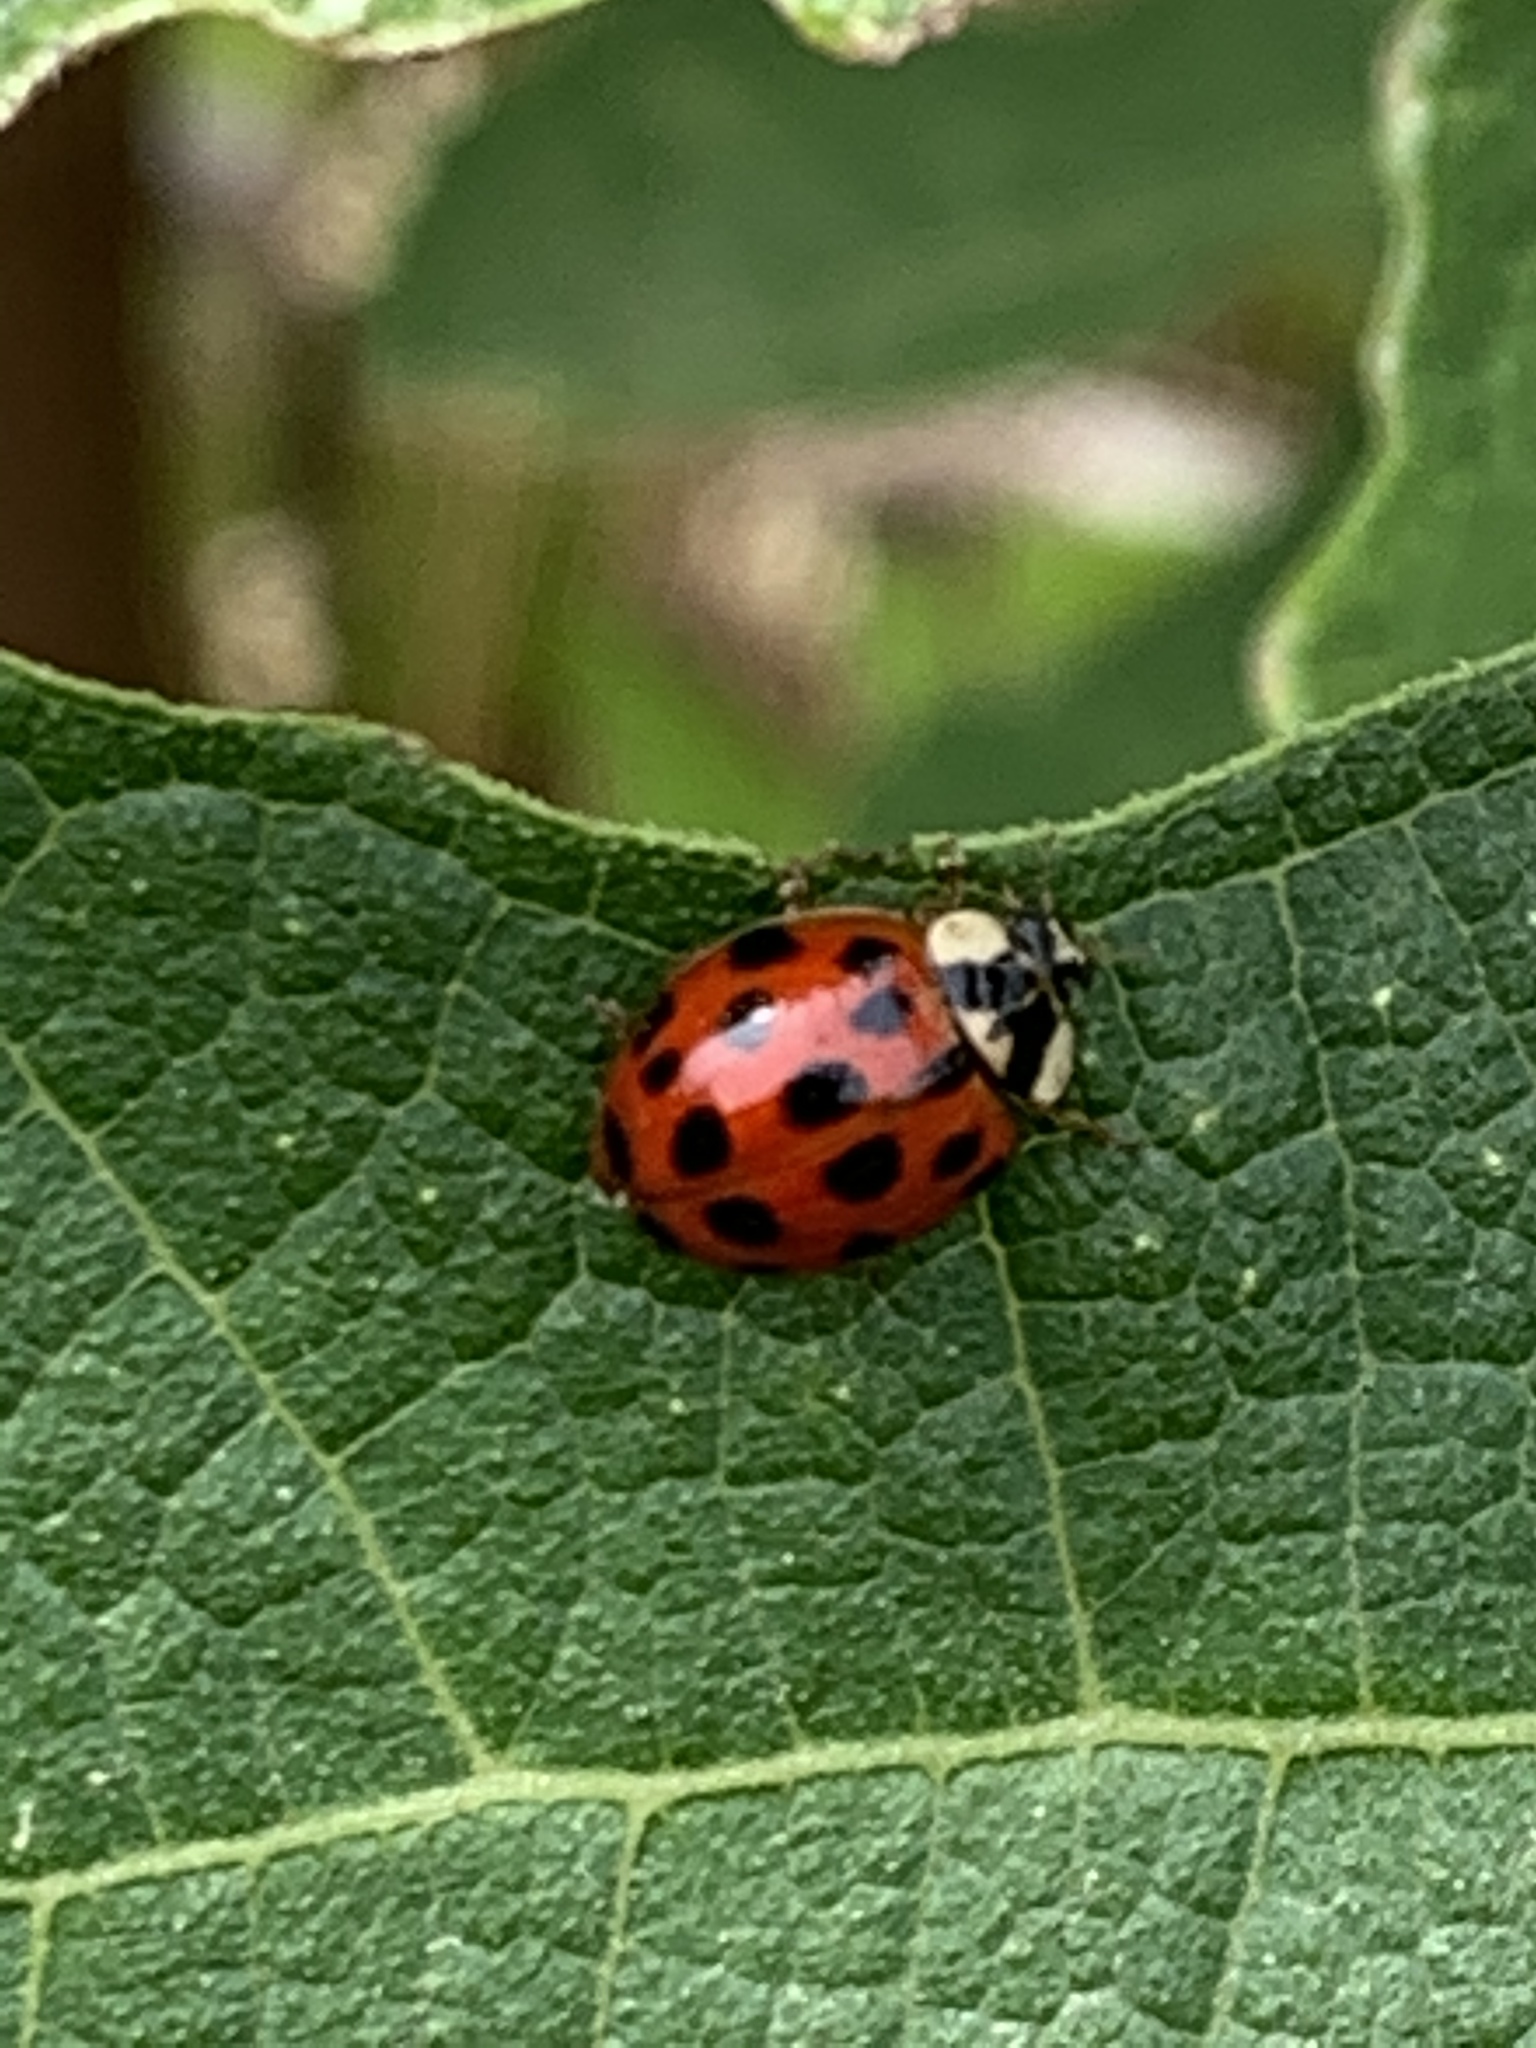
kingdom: Animalia
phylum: Arthropoda
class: Insecta
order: Coleoptera
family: Coccinellidae
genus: Harmonia
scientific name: Harmonia axyridis
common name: Harlequin ladybird
